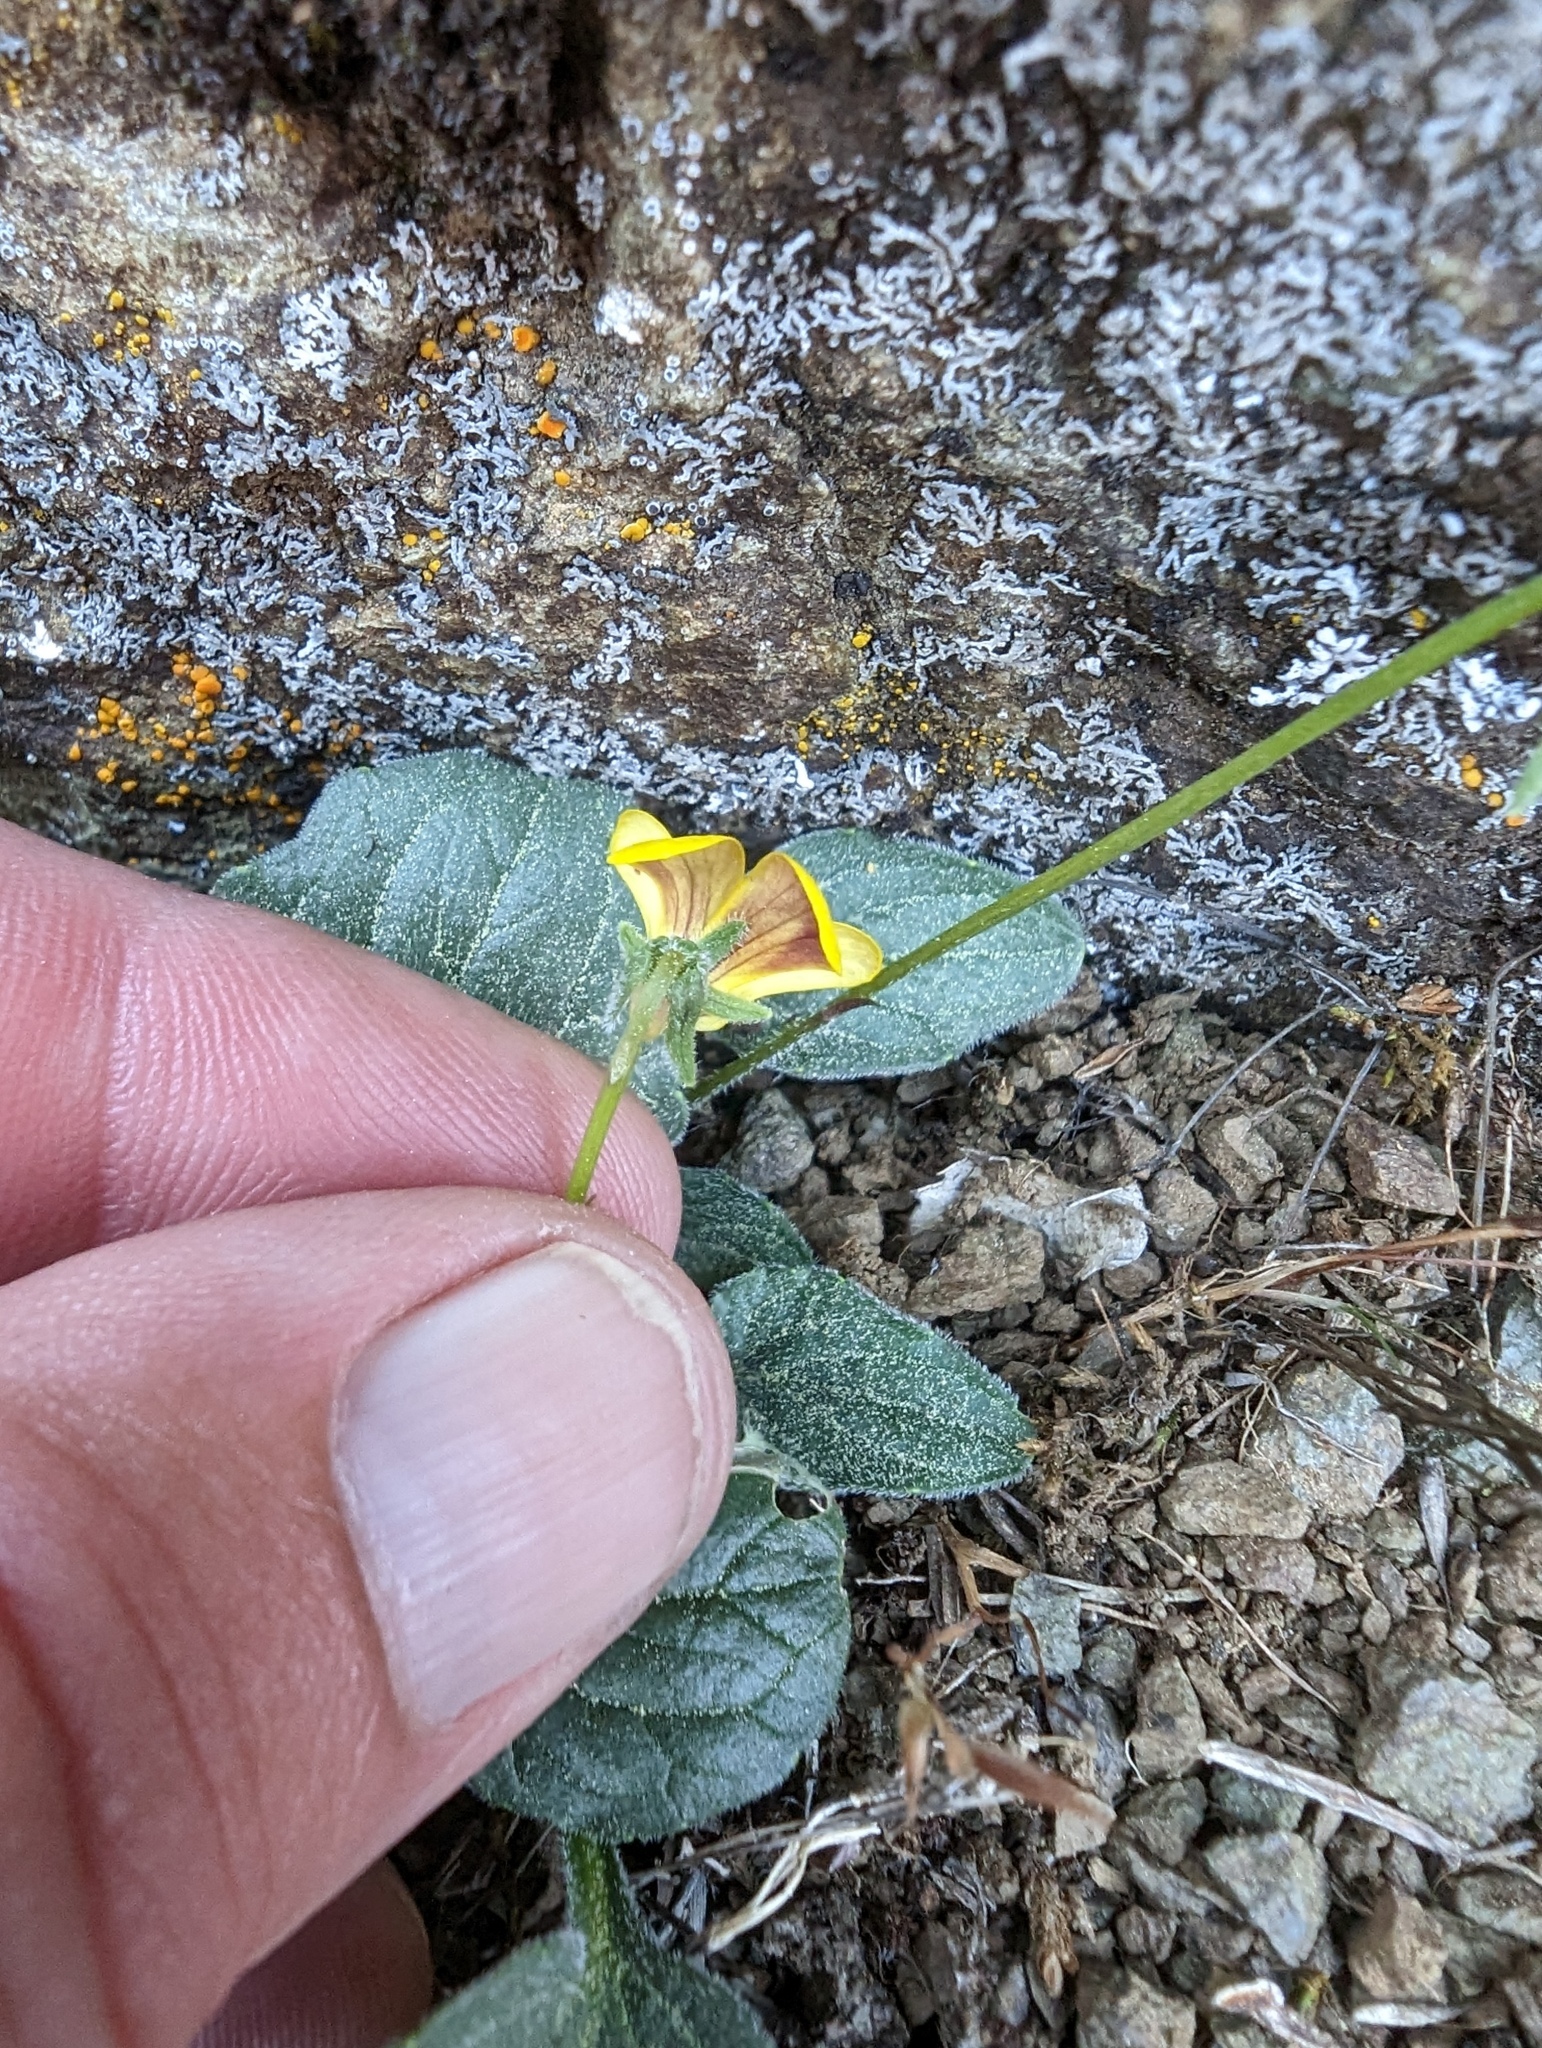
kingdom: Plantae
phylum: Tracheophyta
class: Magnoliopsida
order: Malpighiales
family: Violaceae
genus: Viola
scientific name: Viola purpurea
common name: Pine violet
